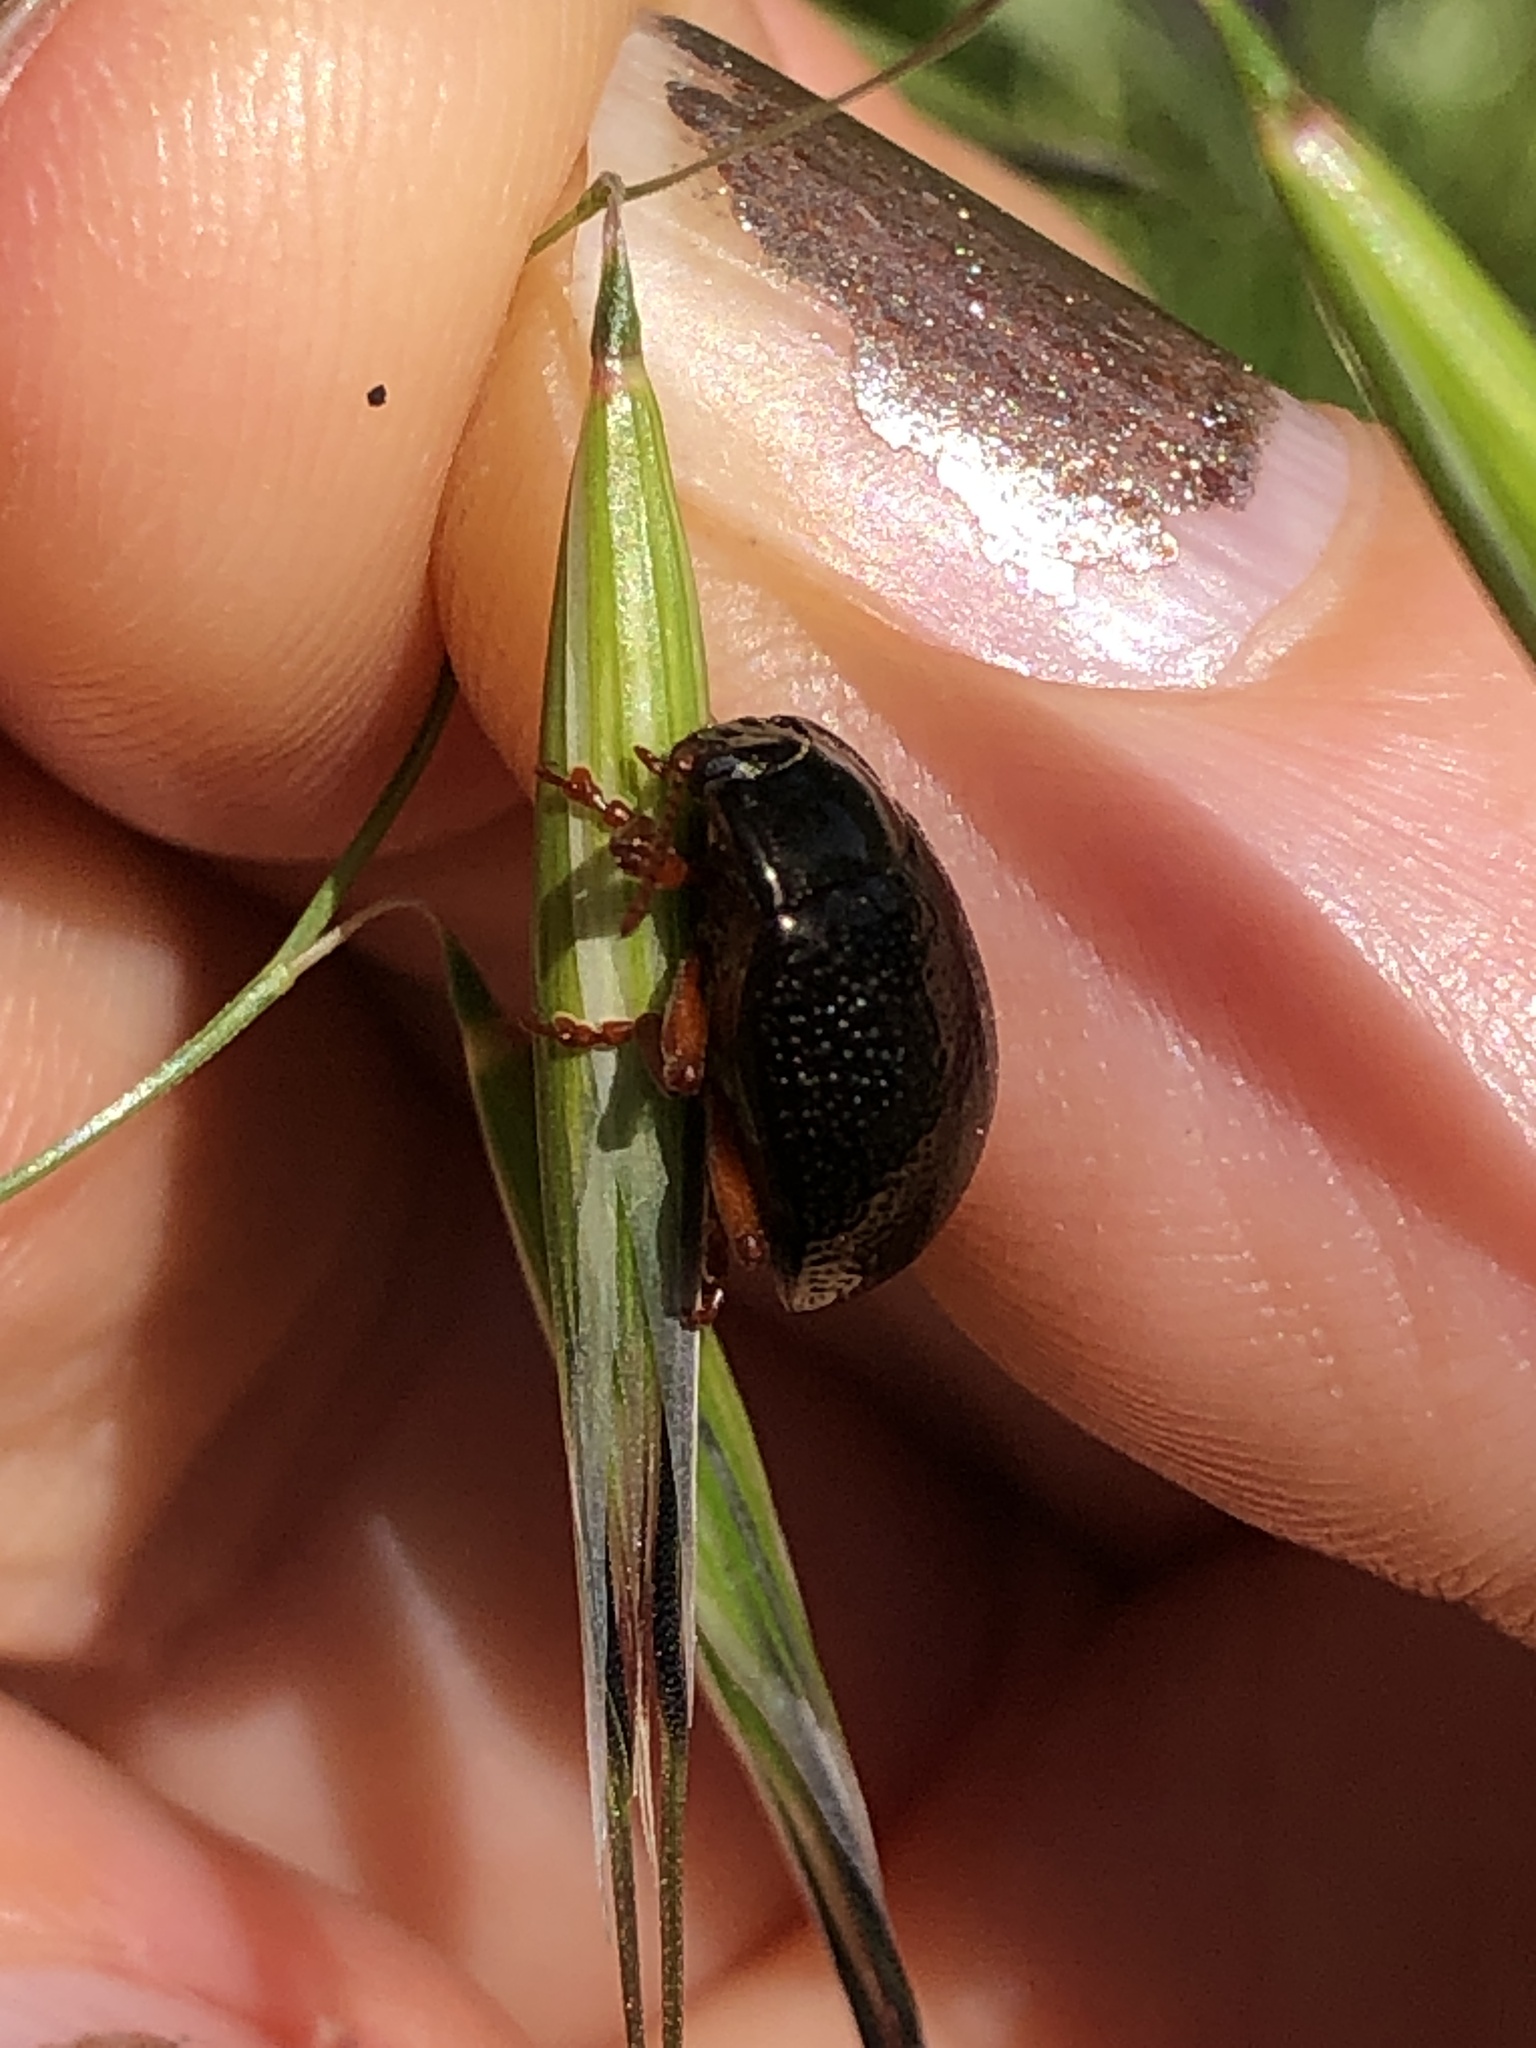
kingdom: Animalia
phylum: Arthropoda
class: Insecta
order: Coleoptera
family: Chrysomelidae
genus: Chrysolina
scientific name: Chrysolina bankii
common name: Leaf beetle
